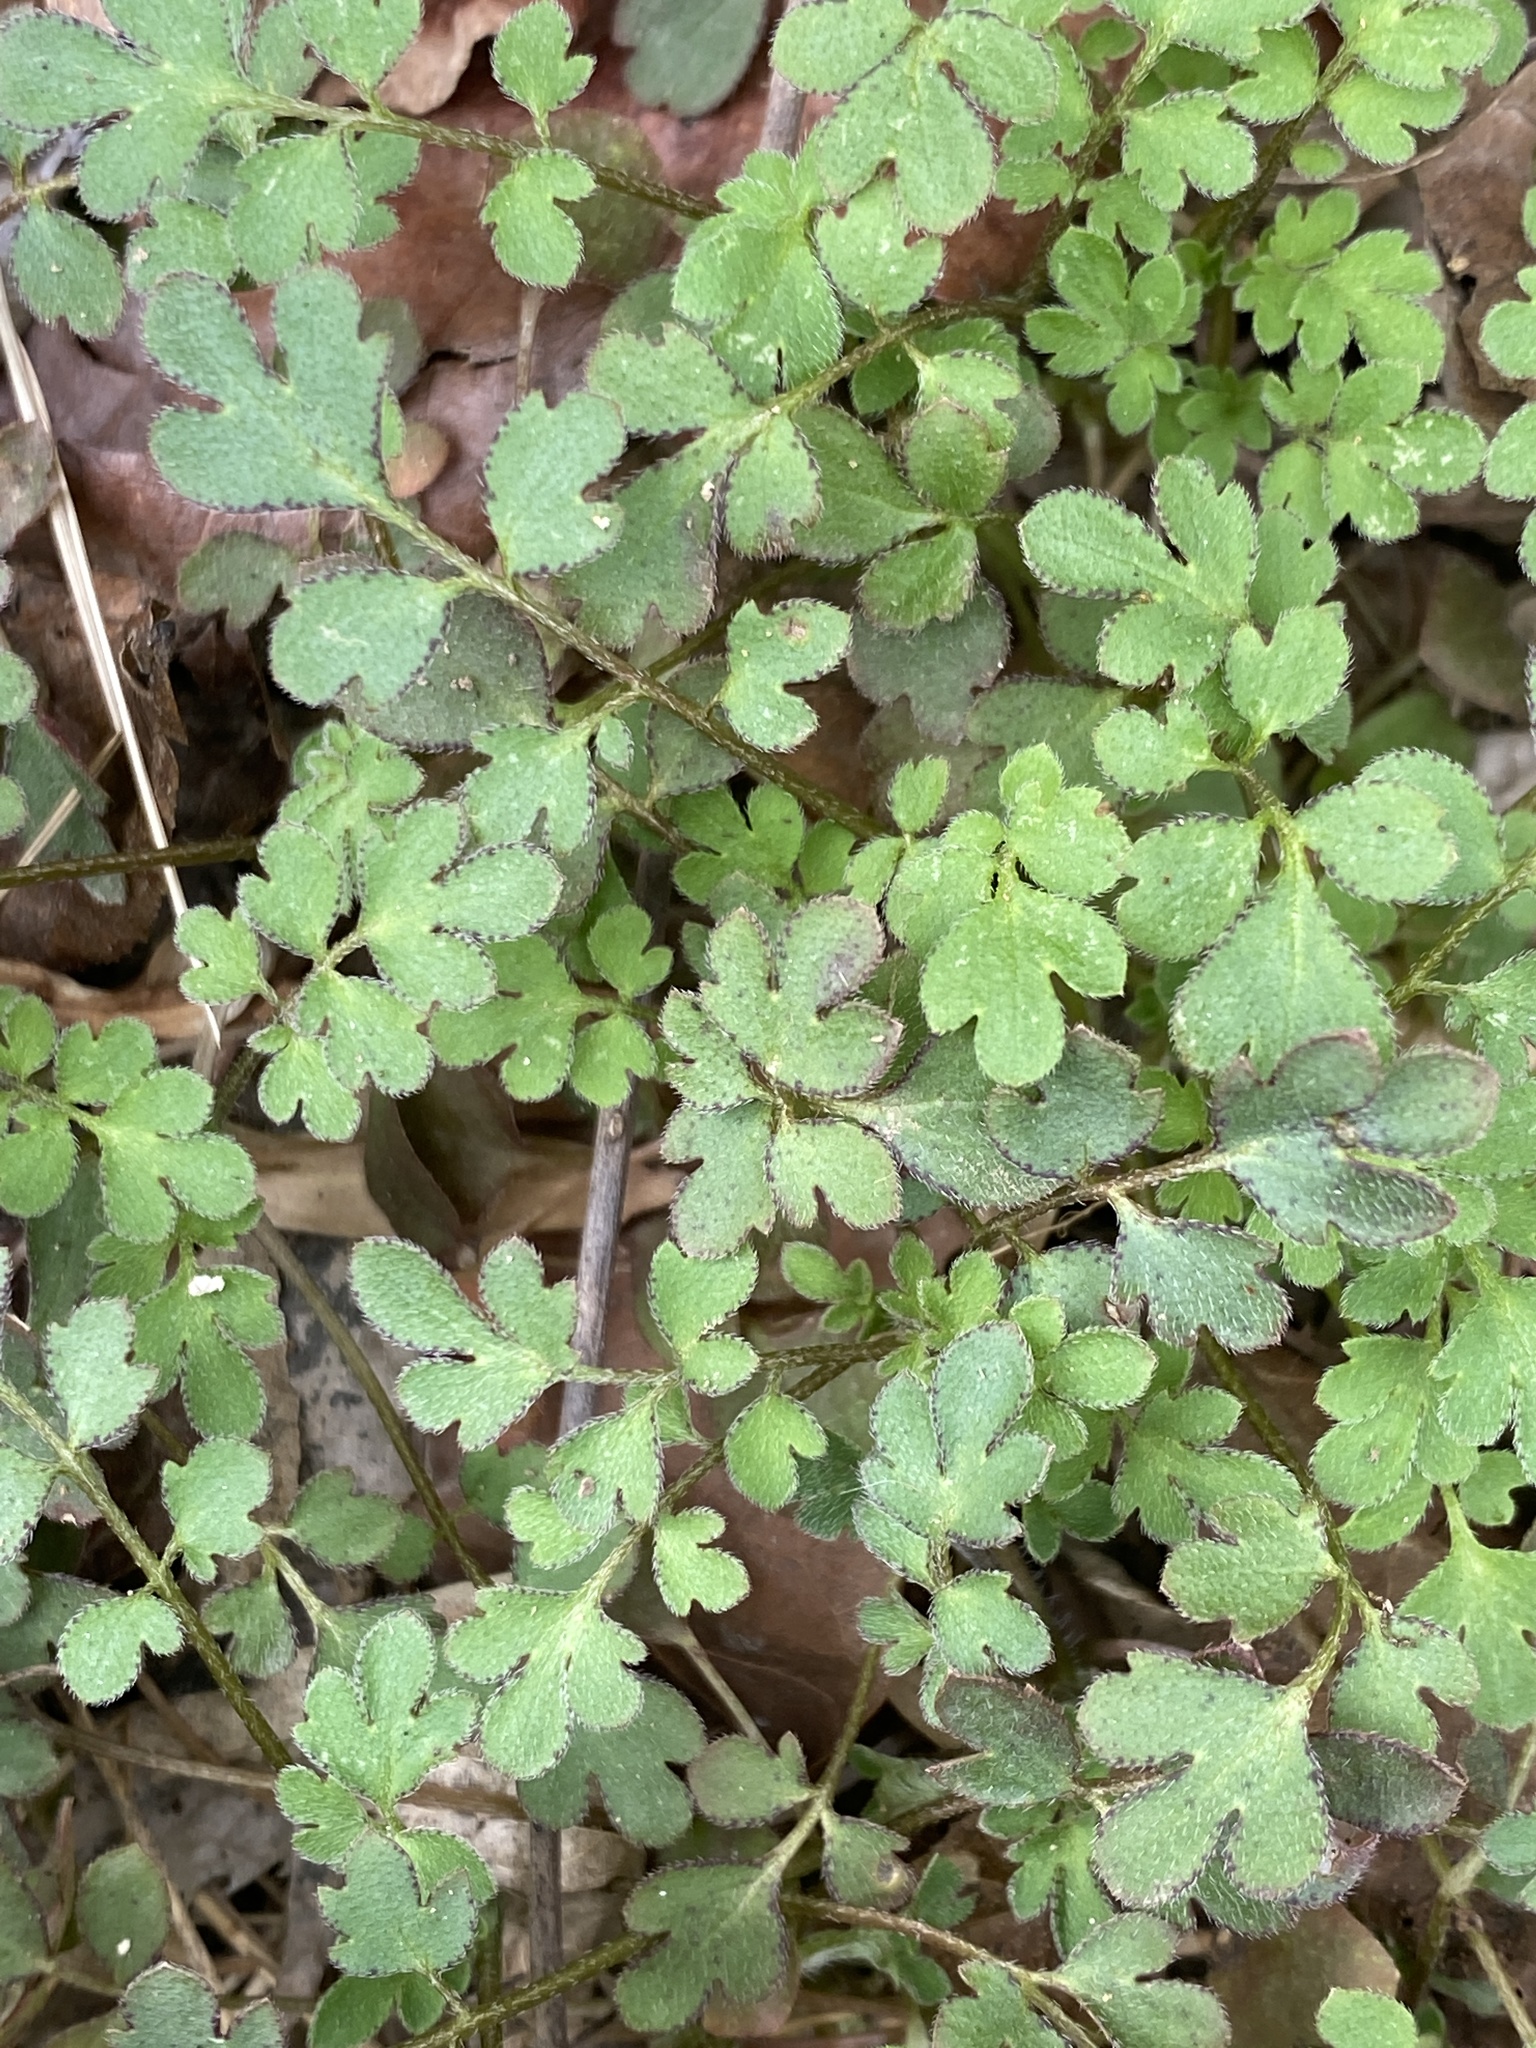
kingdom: Plantae
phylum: Tracheophyta
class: Magnoliopsida
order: Boraginales
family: Hydrophyllaceae
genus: Phacelia
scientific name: Phacelia covillei
